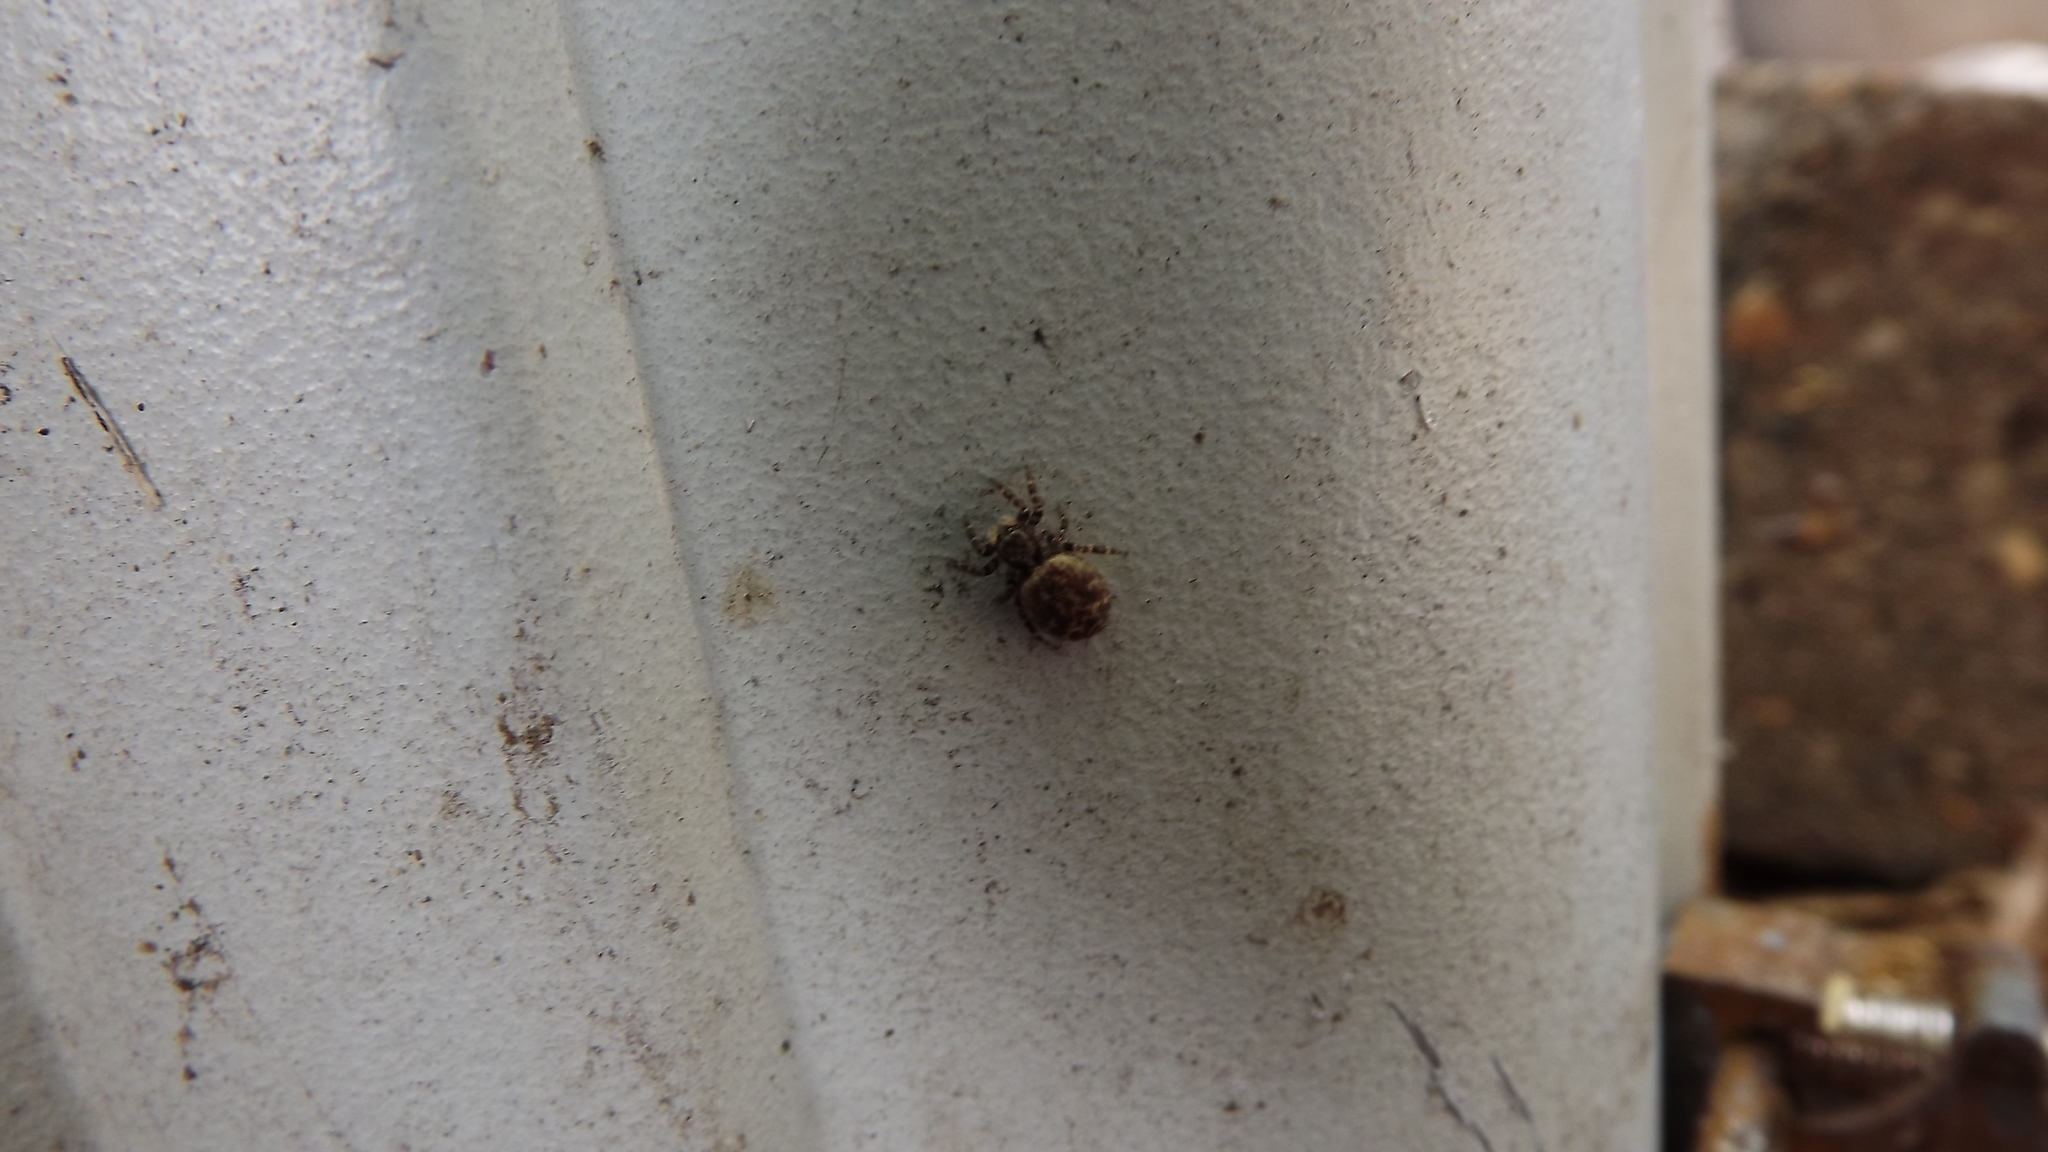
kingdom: Animalia
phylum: Arthropoda
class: Arachnida
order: Araneae
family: Salticidae
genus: Pseudeuophrys
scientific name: Pseudeuophrys erratica
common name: Jumping spider
